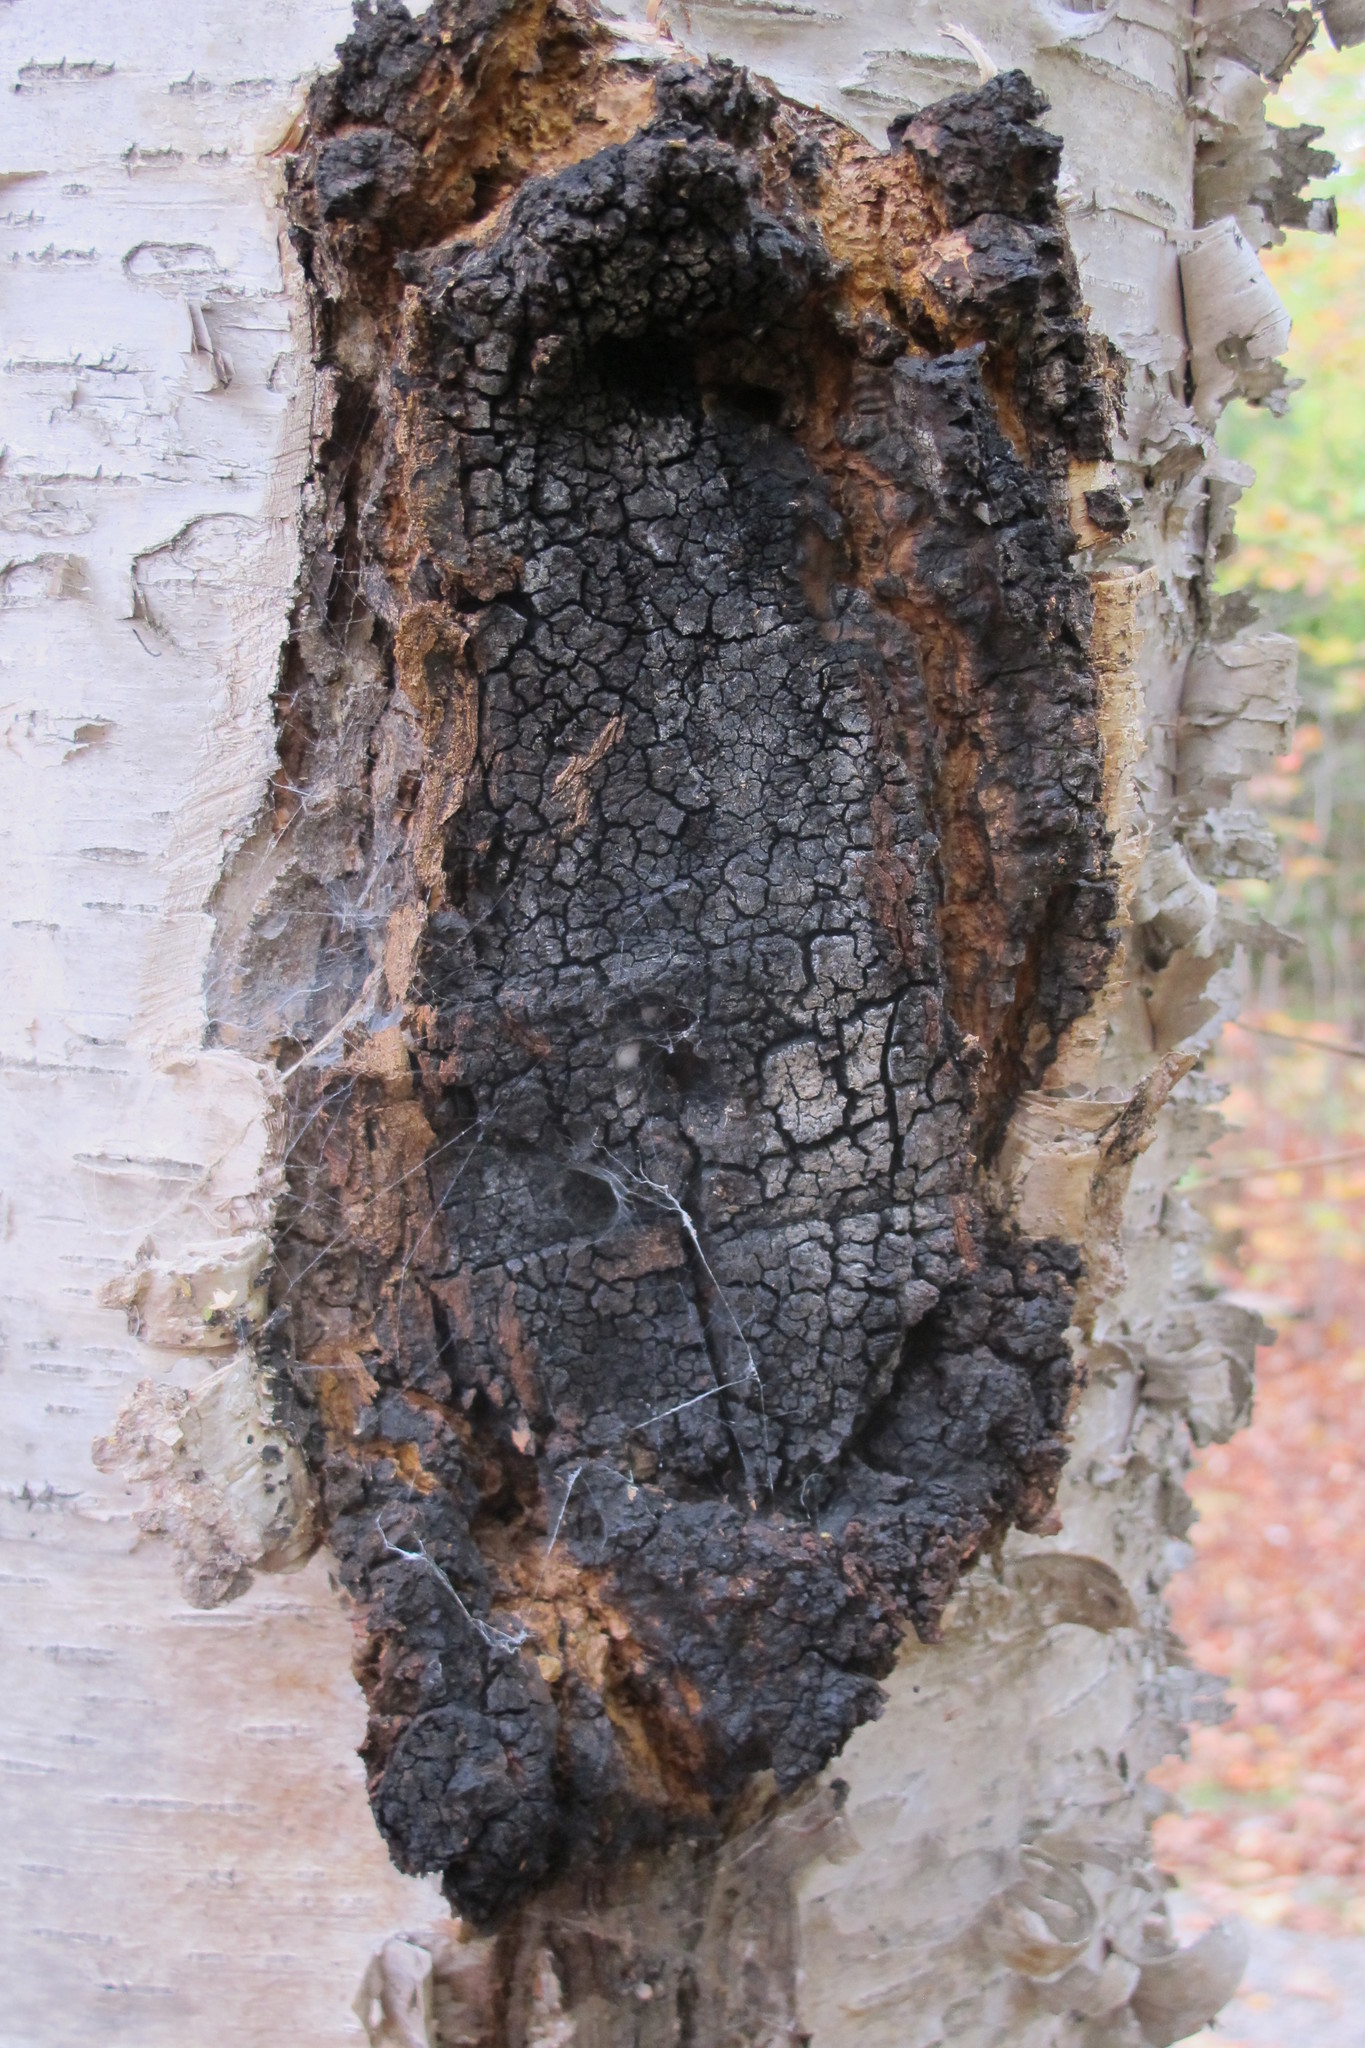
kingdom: Fungi
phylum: Basidiomycota
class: Agaricomycetes
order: Hymenochaetales
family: Hymenochaetaceae
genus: Inonotus
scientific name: Inonotus obliquus
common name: Chaga
